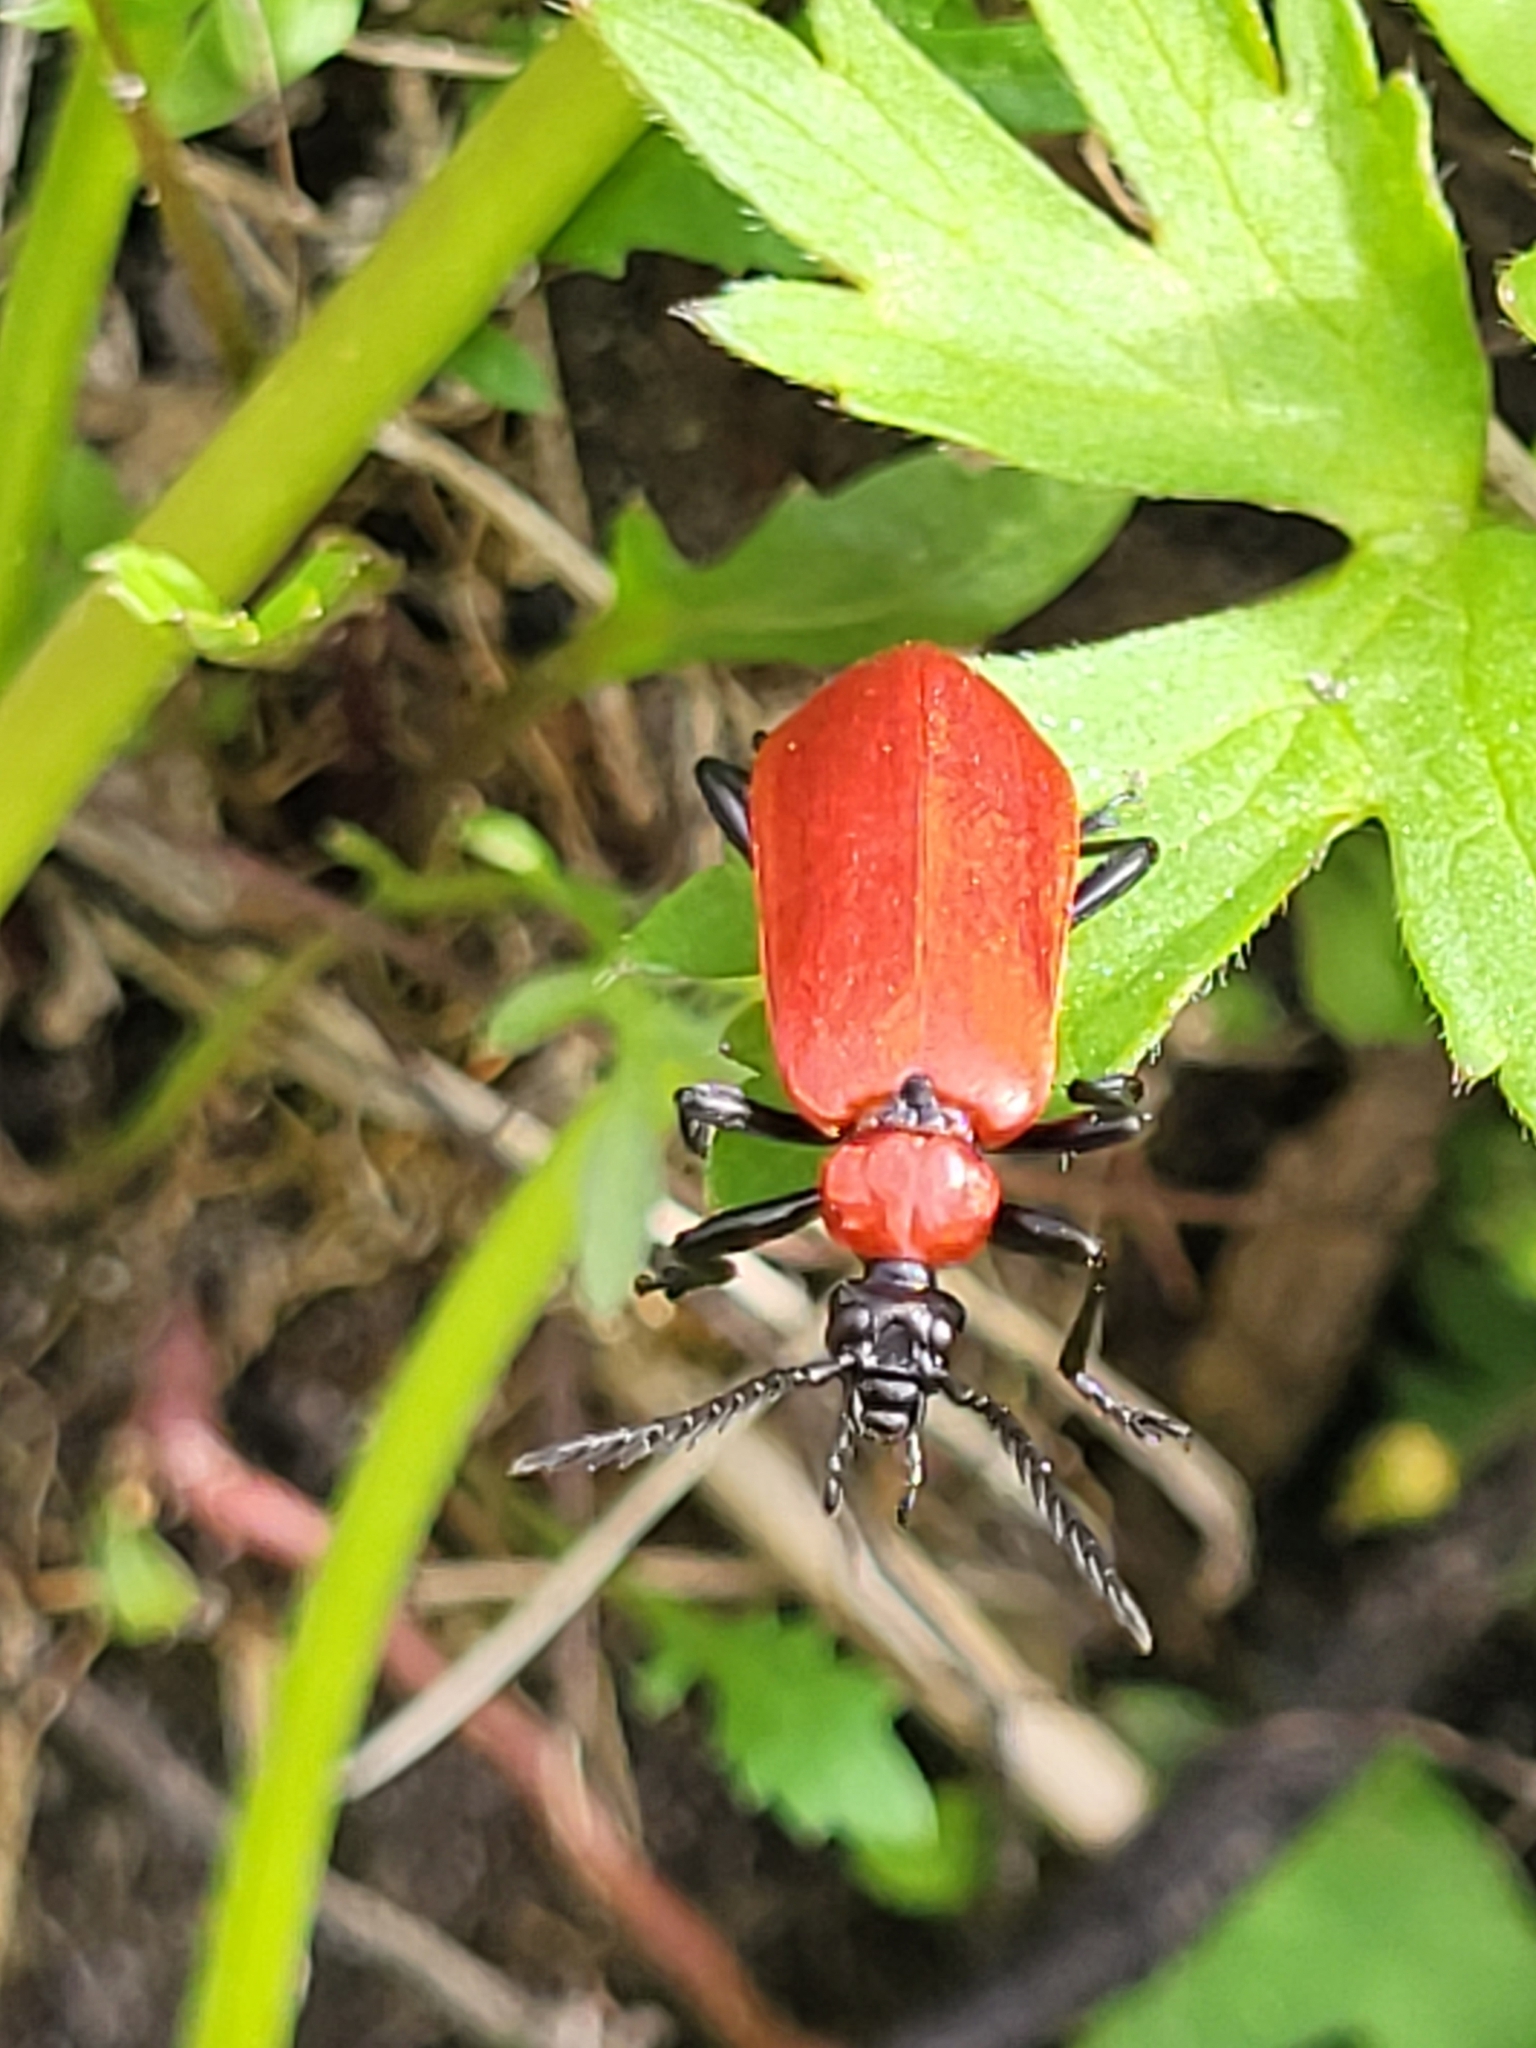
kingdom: Animalia
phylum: Arthropoda
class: Insecta
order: Coleoptera
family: Pyrochroidae
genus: Pyrochroa
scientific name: Pyrochroa coccinea
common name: Black-headed cardinal beetle
